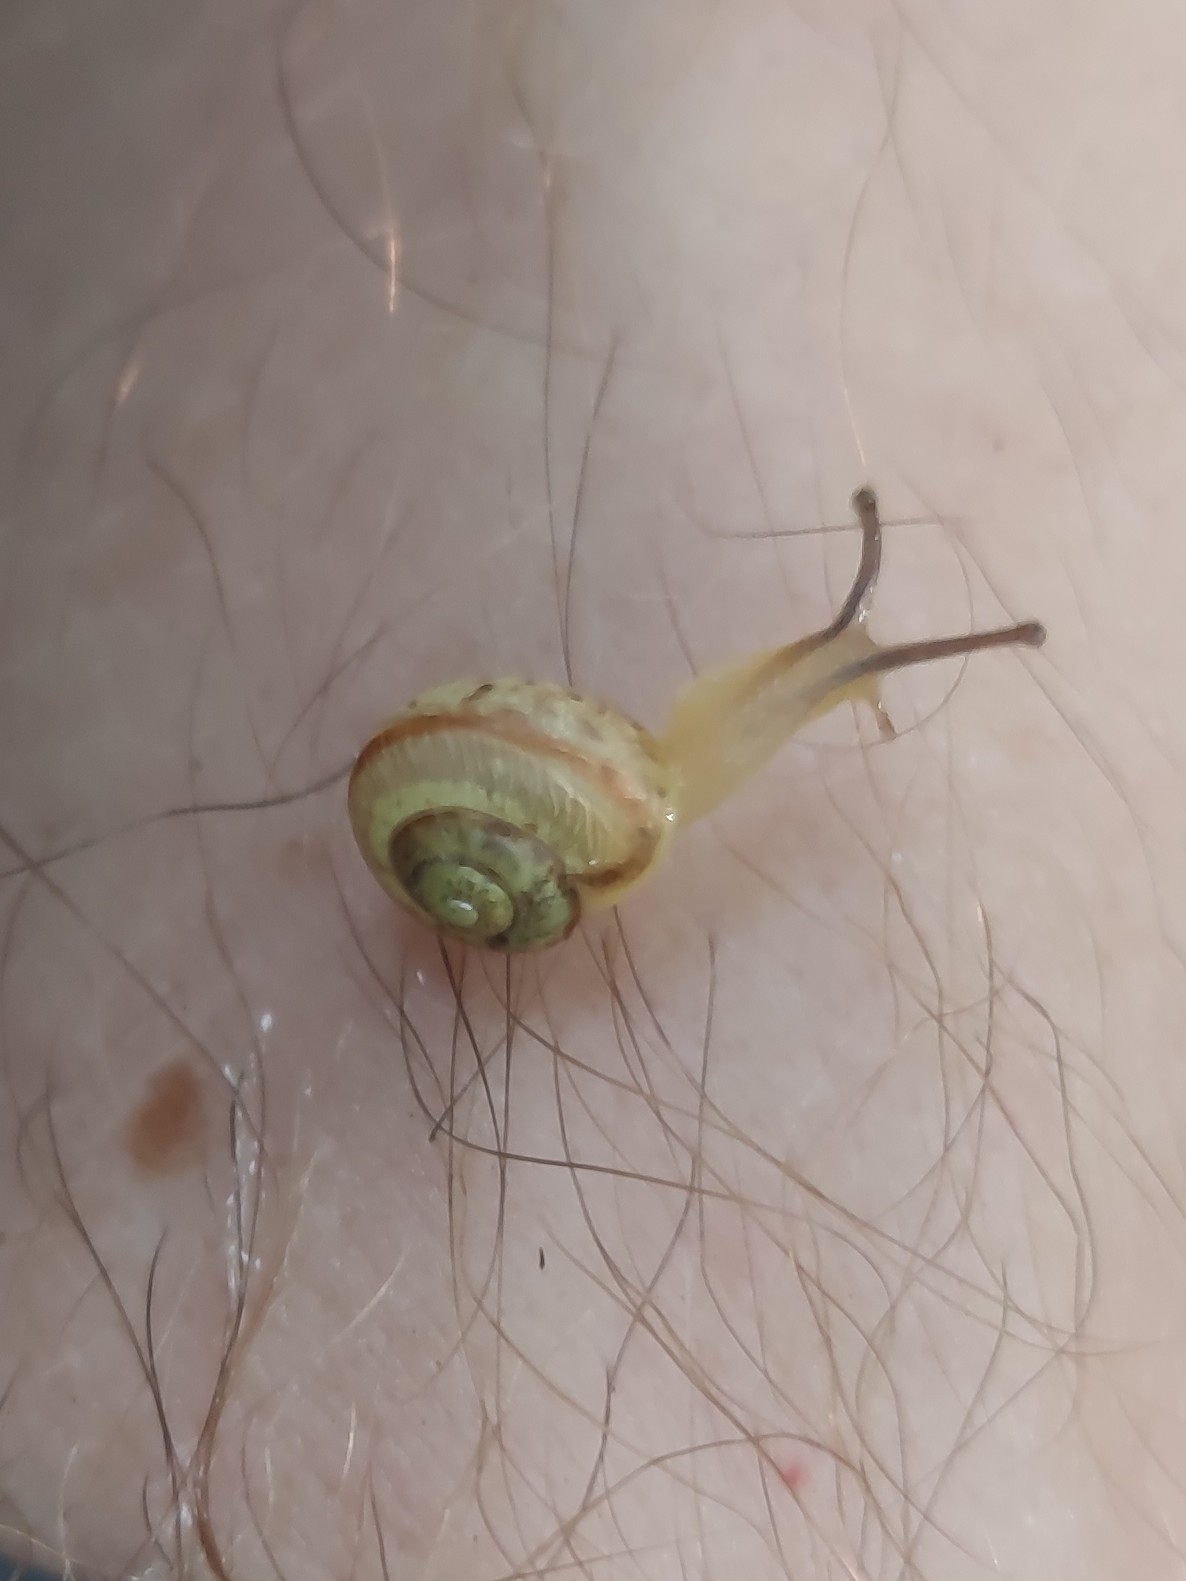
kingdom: Animalia
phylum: Mollusca
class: Gastropoda
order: Stylommatophora
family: Camaenidae
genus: Fruticicola
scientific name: Fruticicola fruticum
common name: Bush snail
